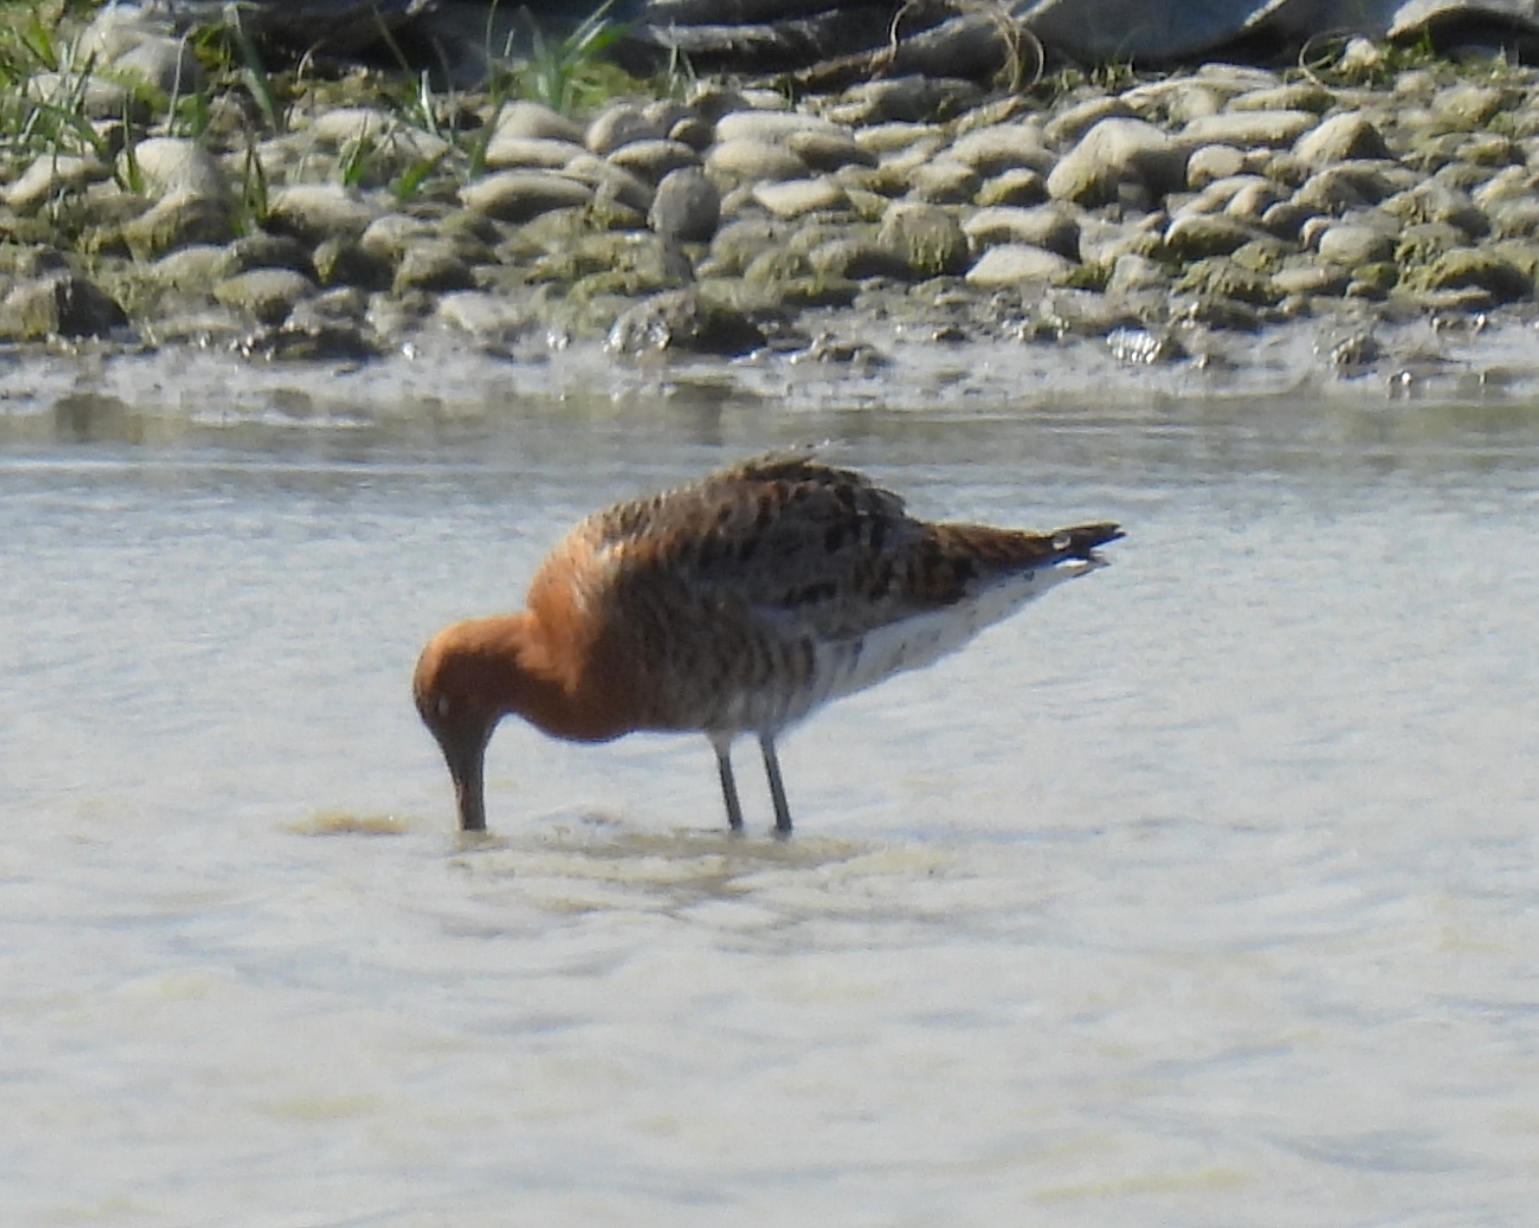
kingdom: Animalia
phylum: Chordata
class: Aves
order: Charadriiformes
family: Scolopacidae
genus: Limosa
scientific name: Limosa limosa
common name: Black-tailed godwit
